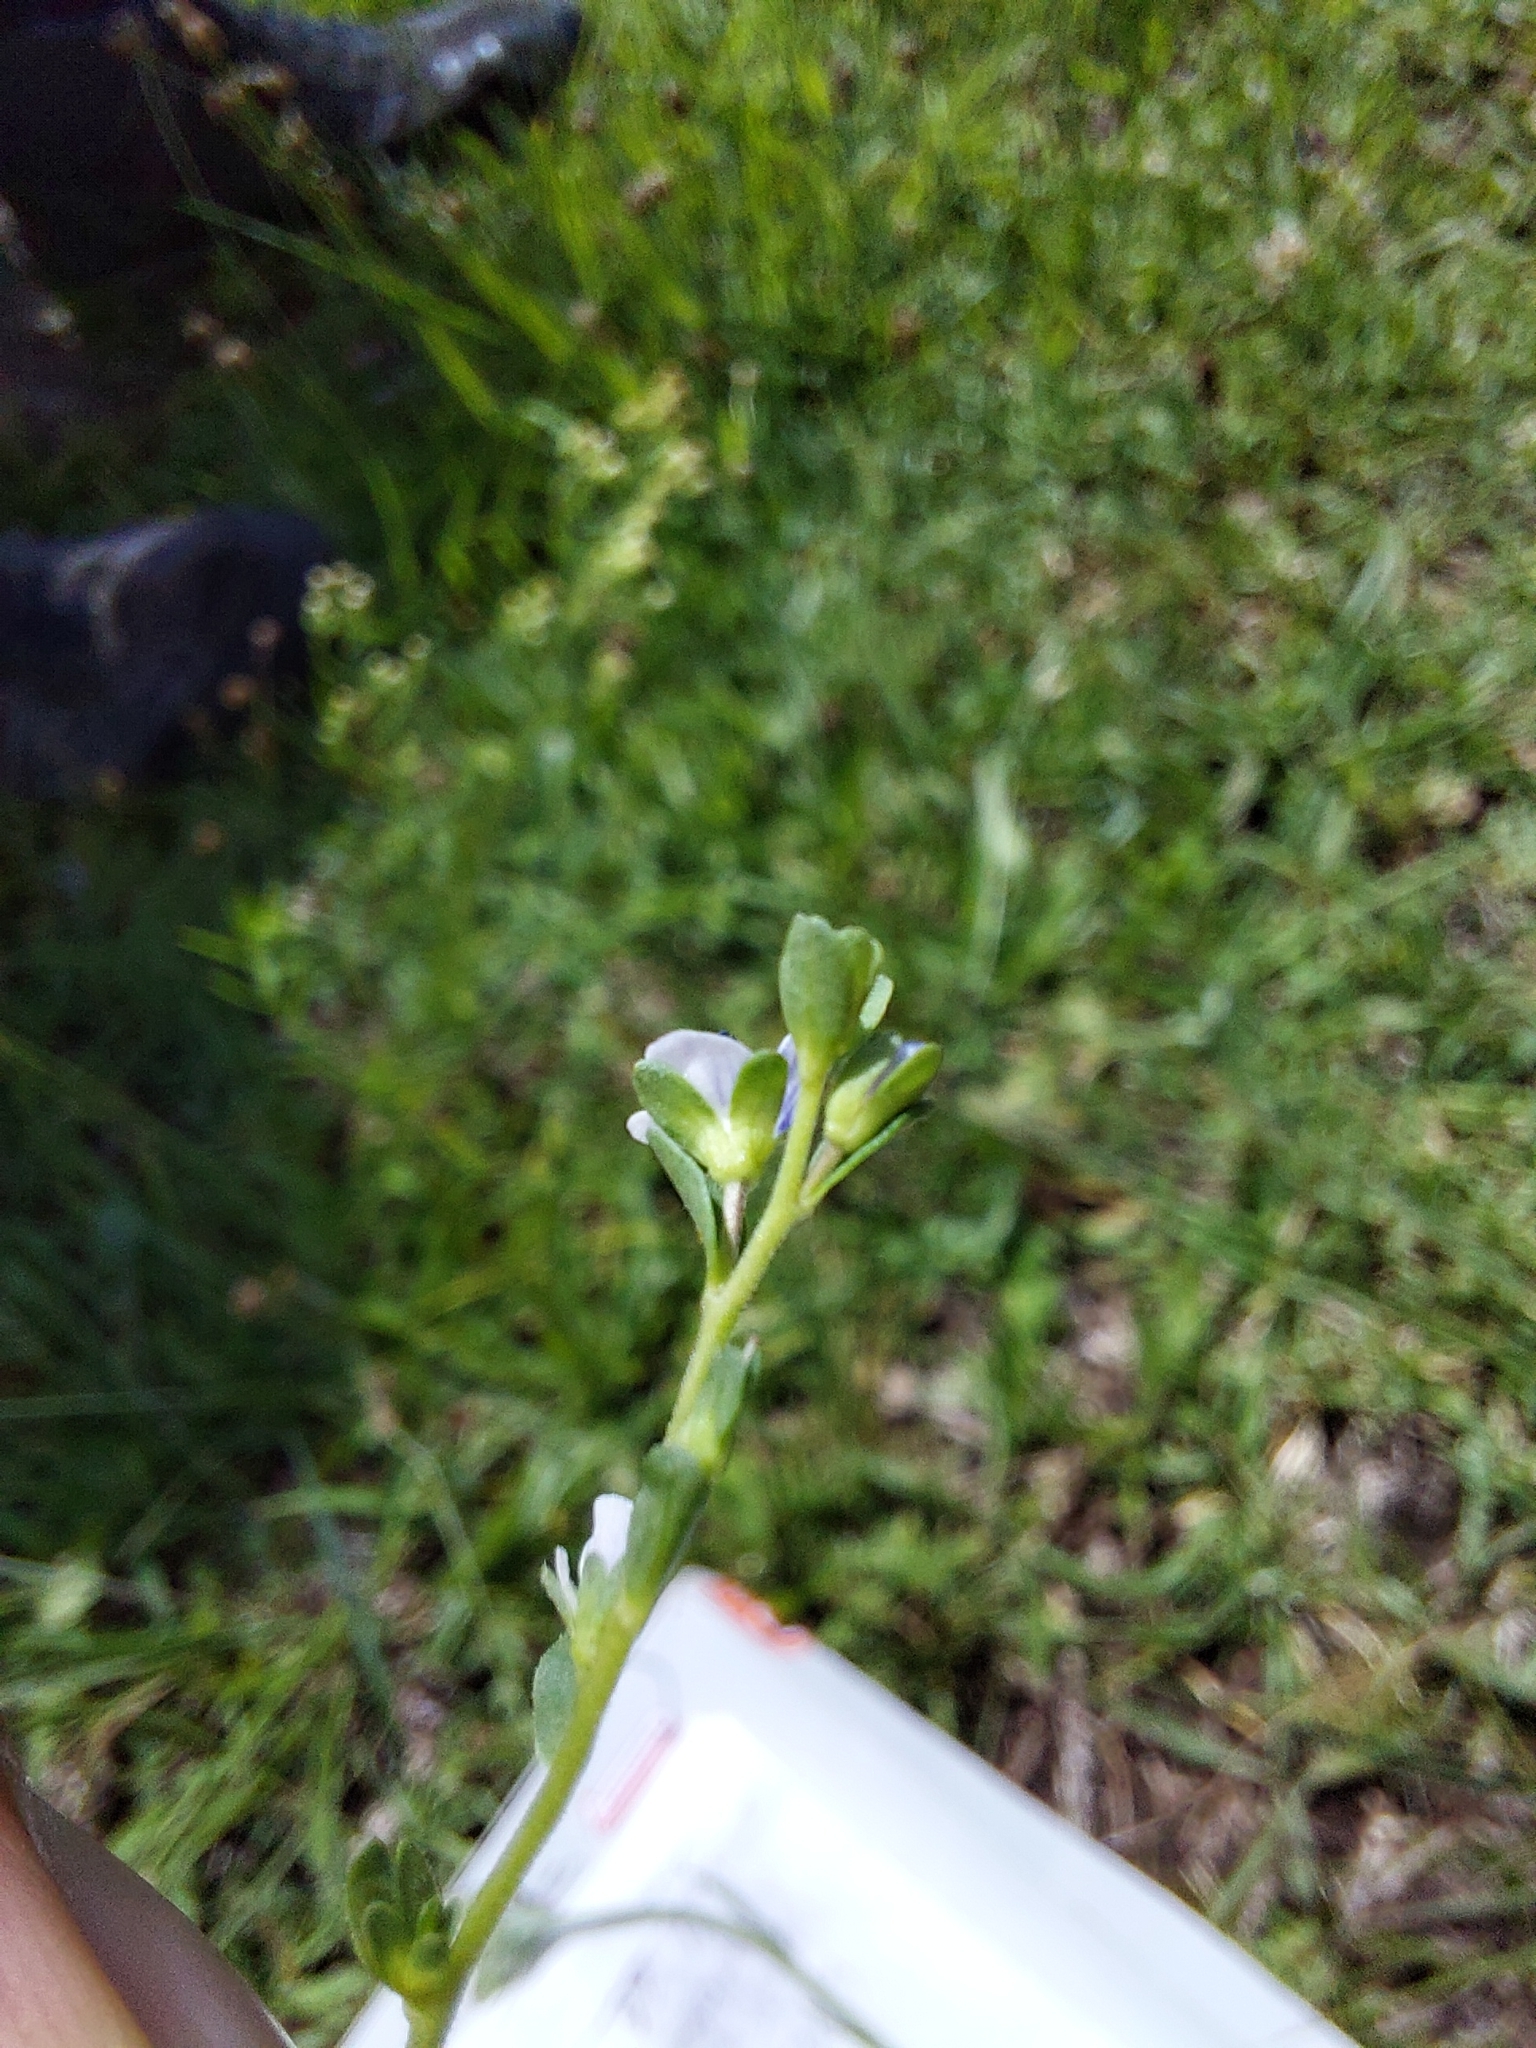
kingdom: Plantae
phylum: Tracheophyta
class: Magnoliopsida
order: Lamiales
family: Plantaginaceae
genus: Veronica
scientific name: Veronica serpyllifolia
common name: Thyme-leaved speedwell
